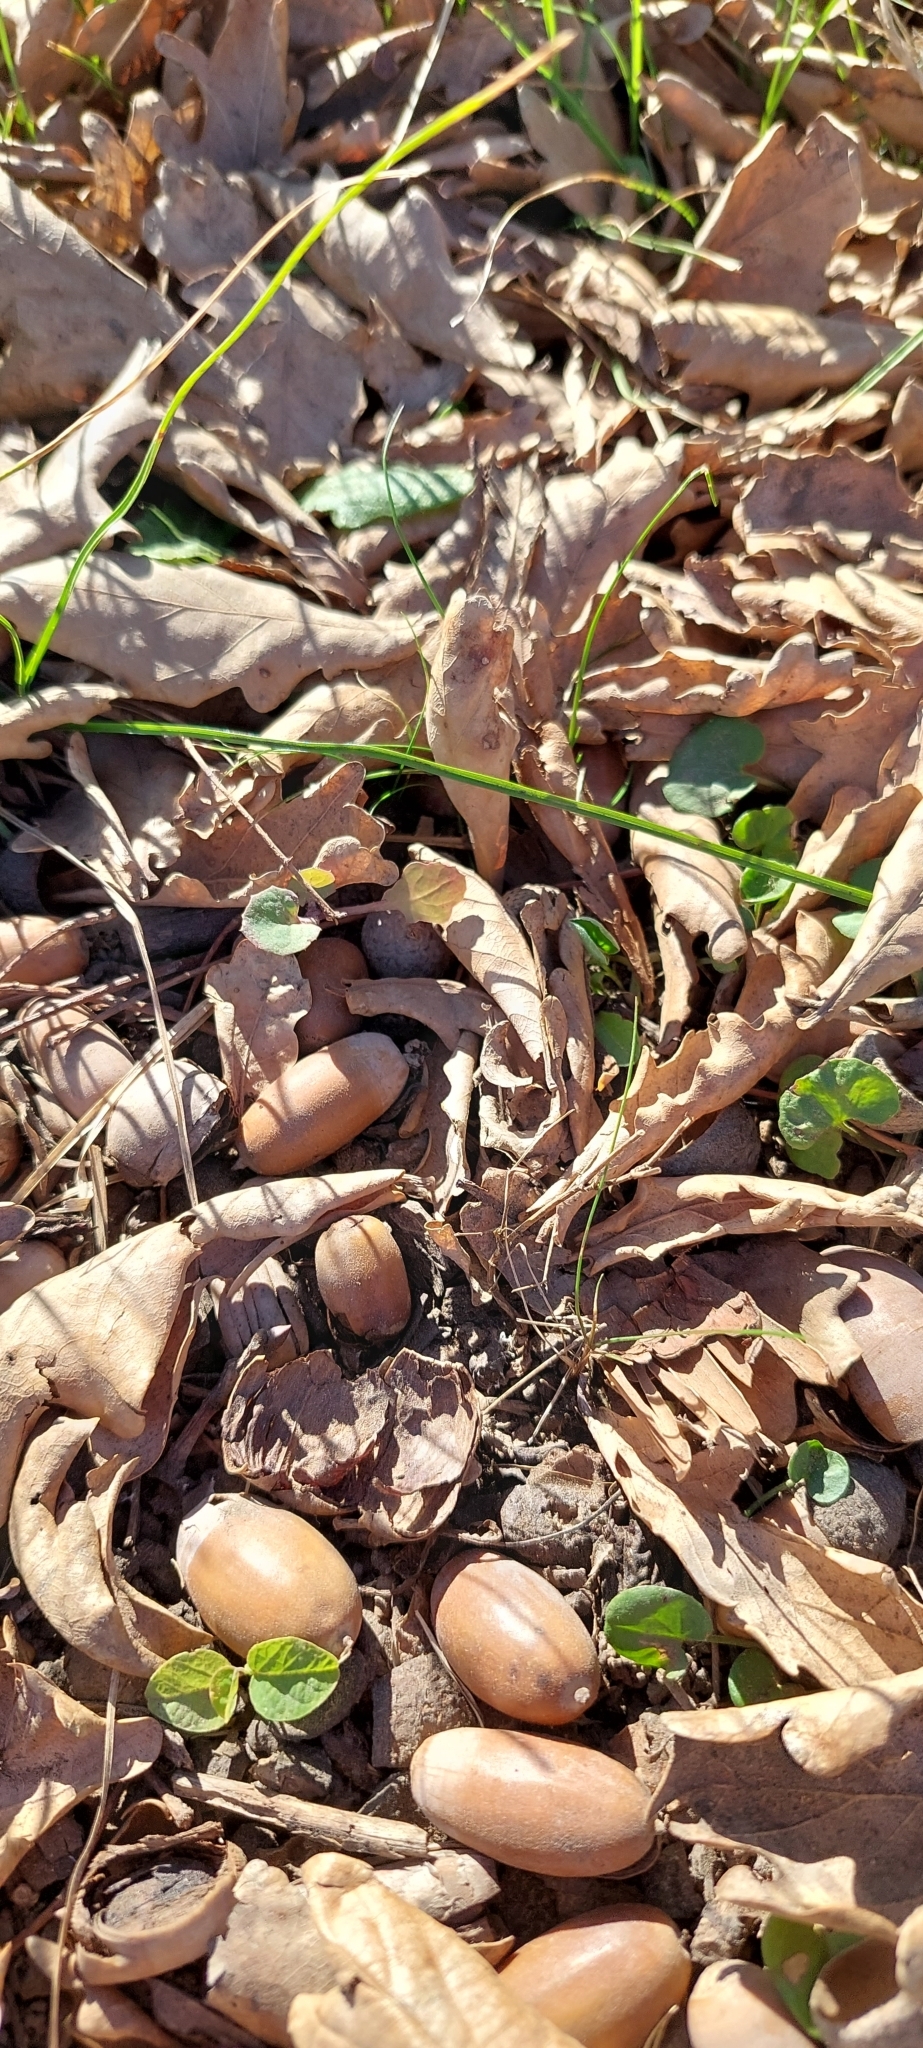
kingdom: Plantae
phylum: Tracheophyta
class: Magnoliopsida
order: Fagales
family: Fagaceae
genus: Quercus
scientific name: Quercus robur
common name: Pedunculate oak
